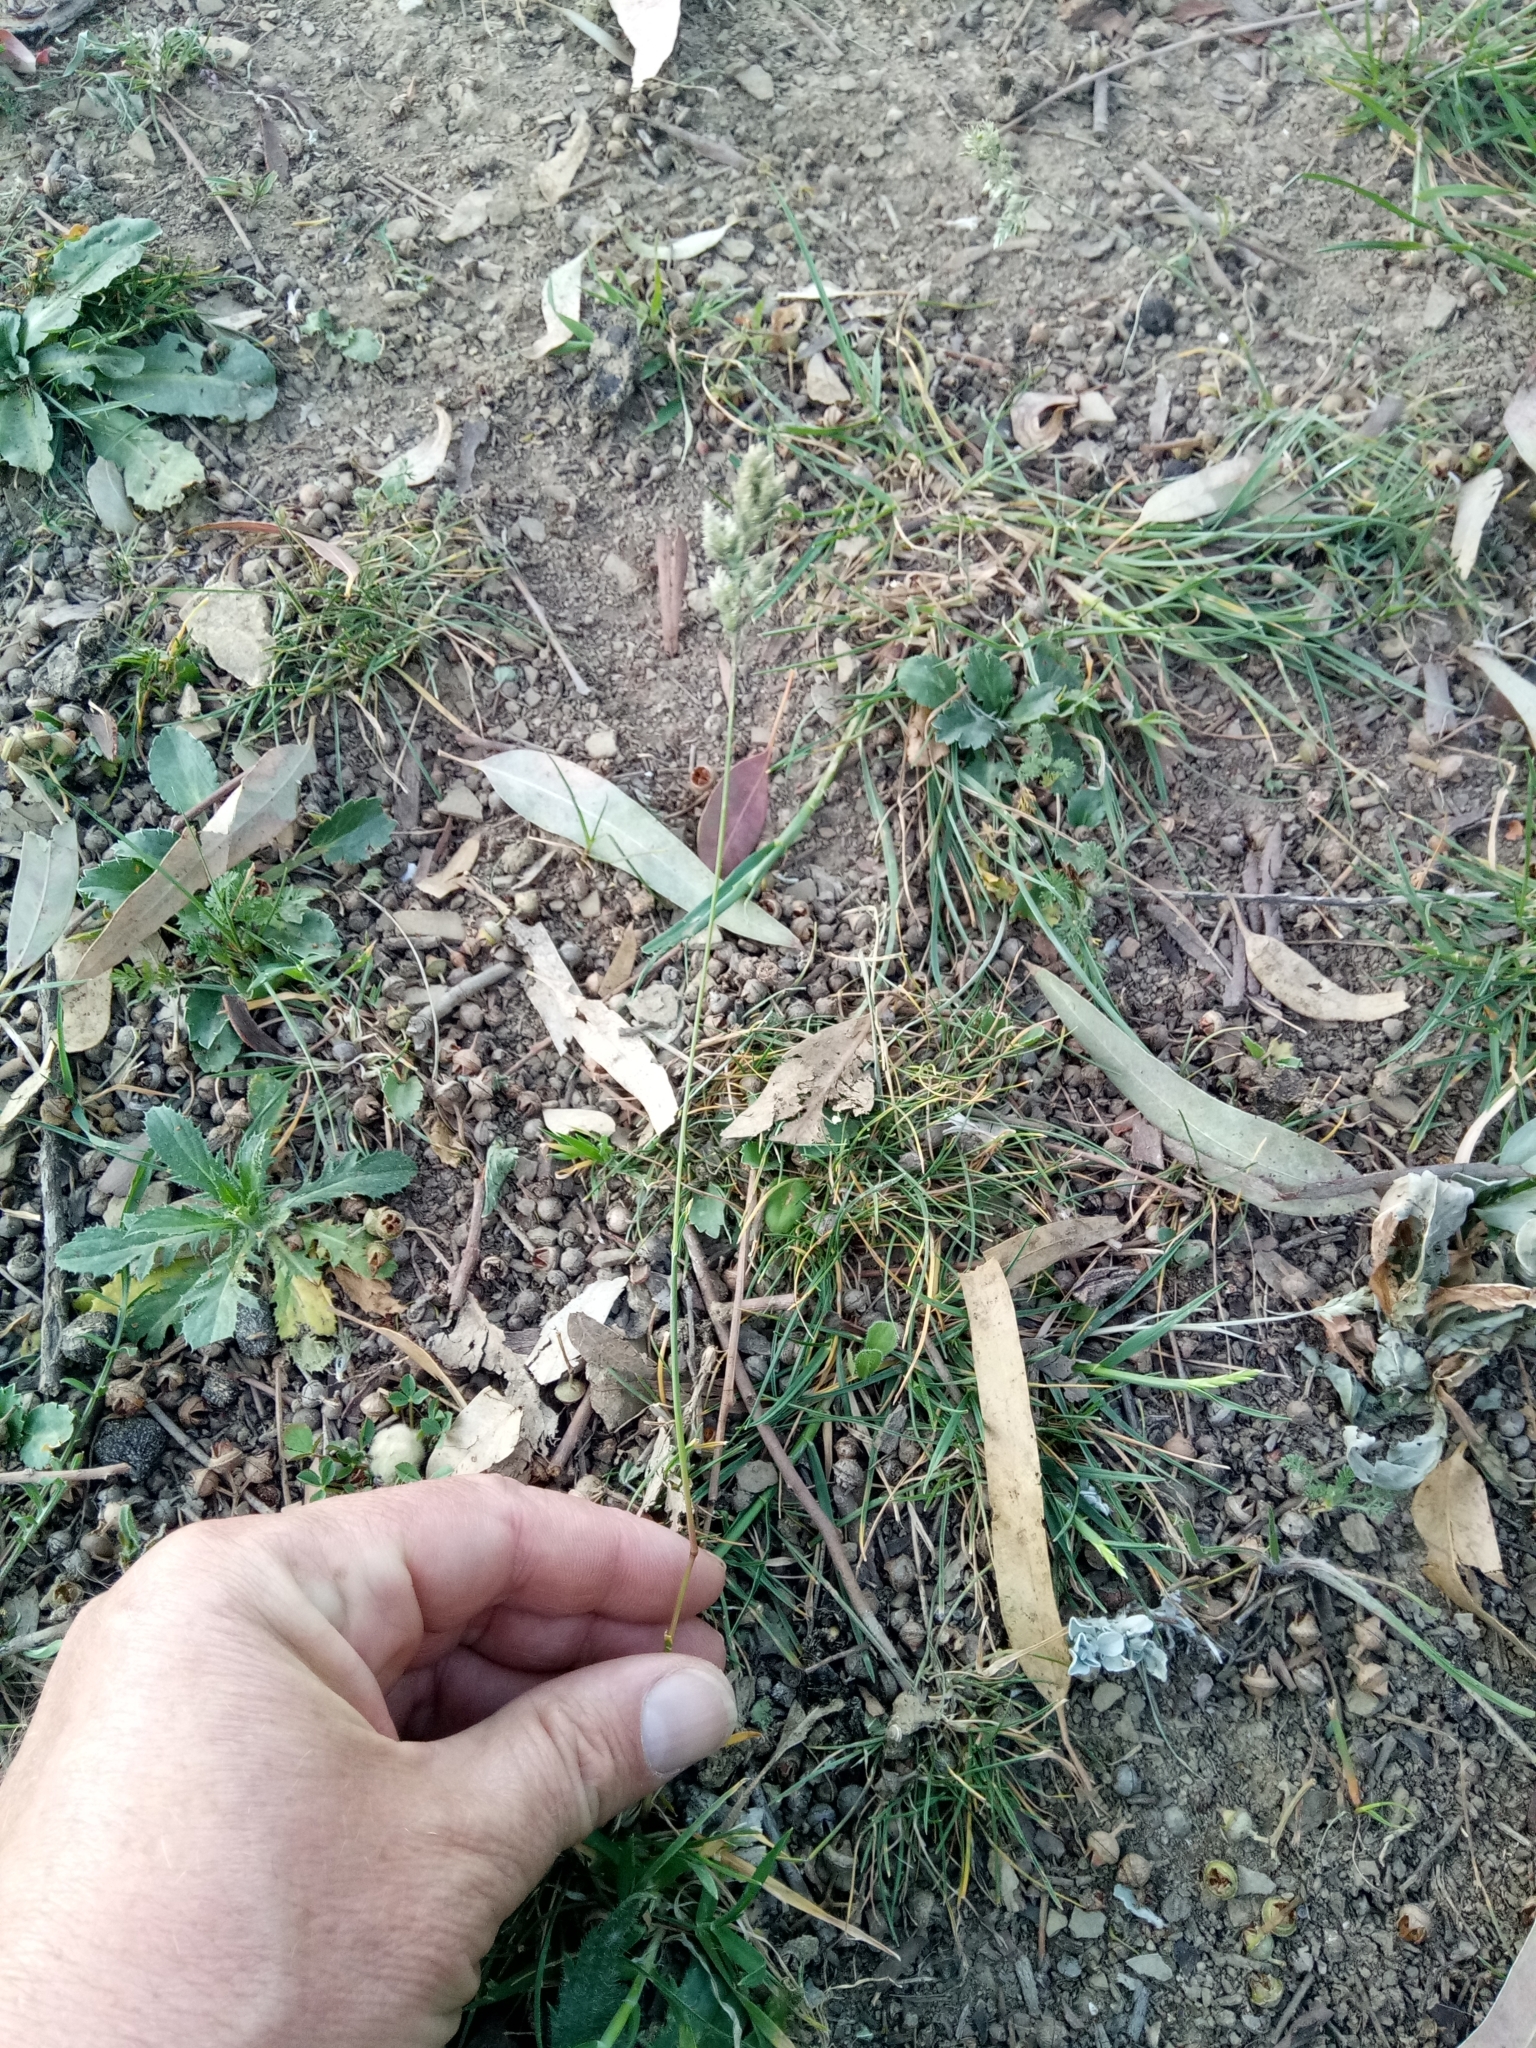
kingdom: Plantae
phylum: Tracheophyta
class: Liliopsida
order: Poales
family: Poaceae
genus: Poa
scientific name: Poa bulbosa
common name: Bulbous bluegrass
